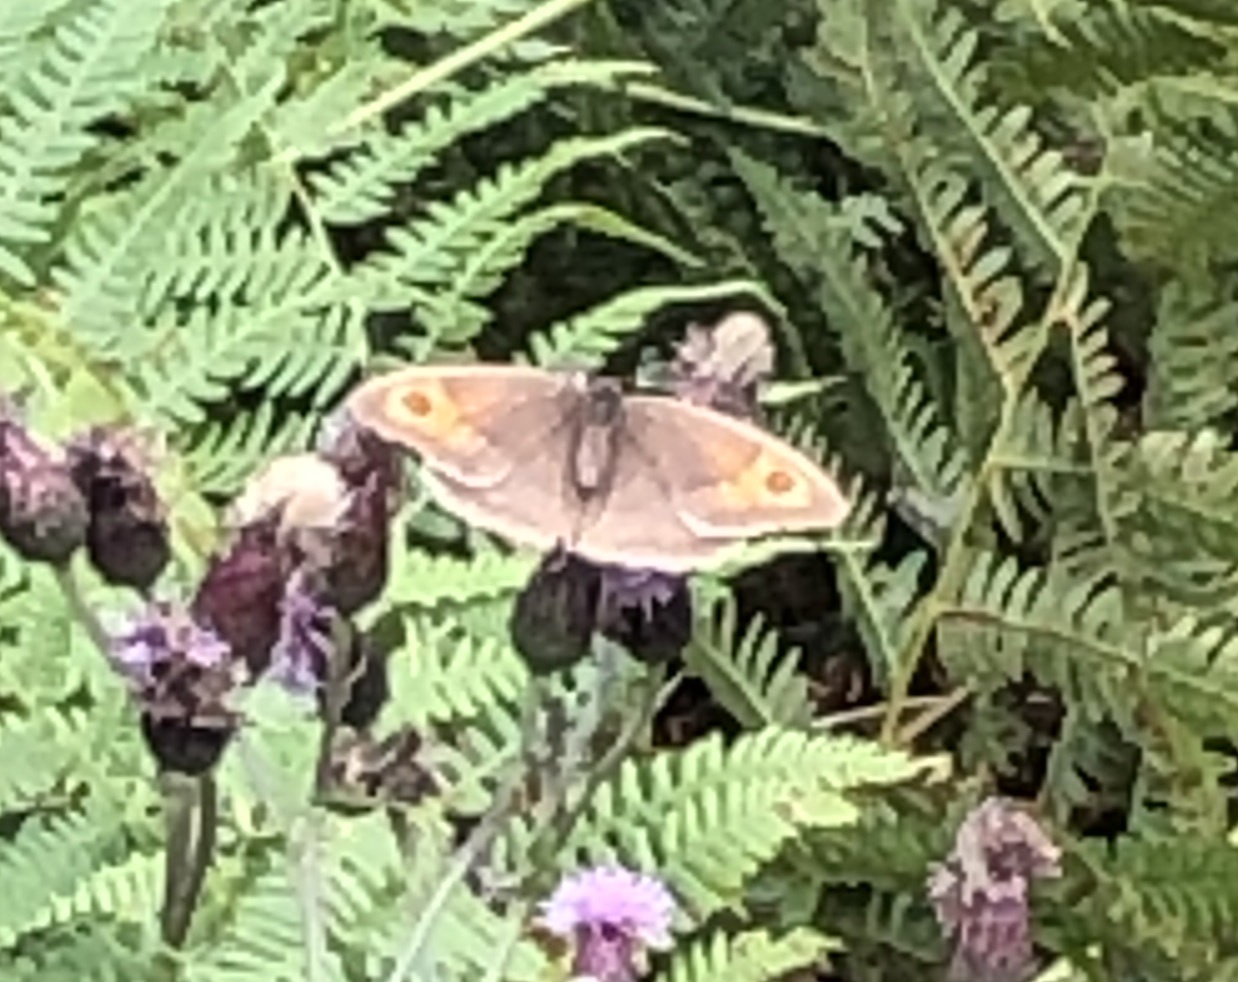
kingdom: Animalia
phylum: Arthropoda
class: Insecta
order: Lepidoptera
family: Nymphalidae
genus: Maniola
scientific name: Maniola jurtina
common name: Meadow brown
